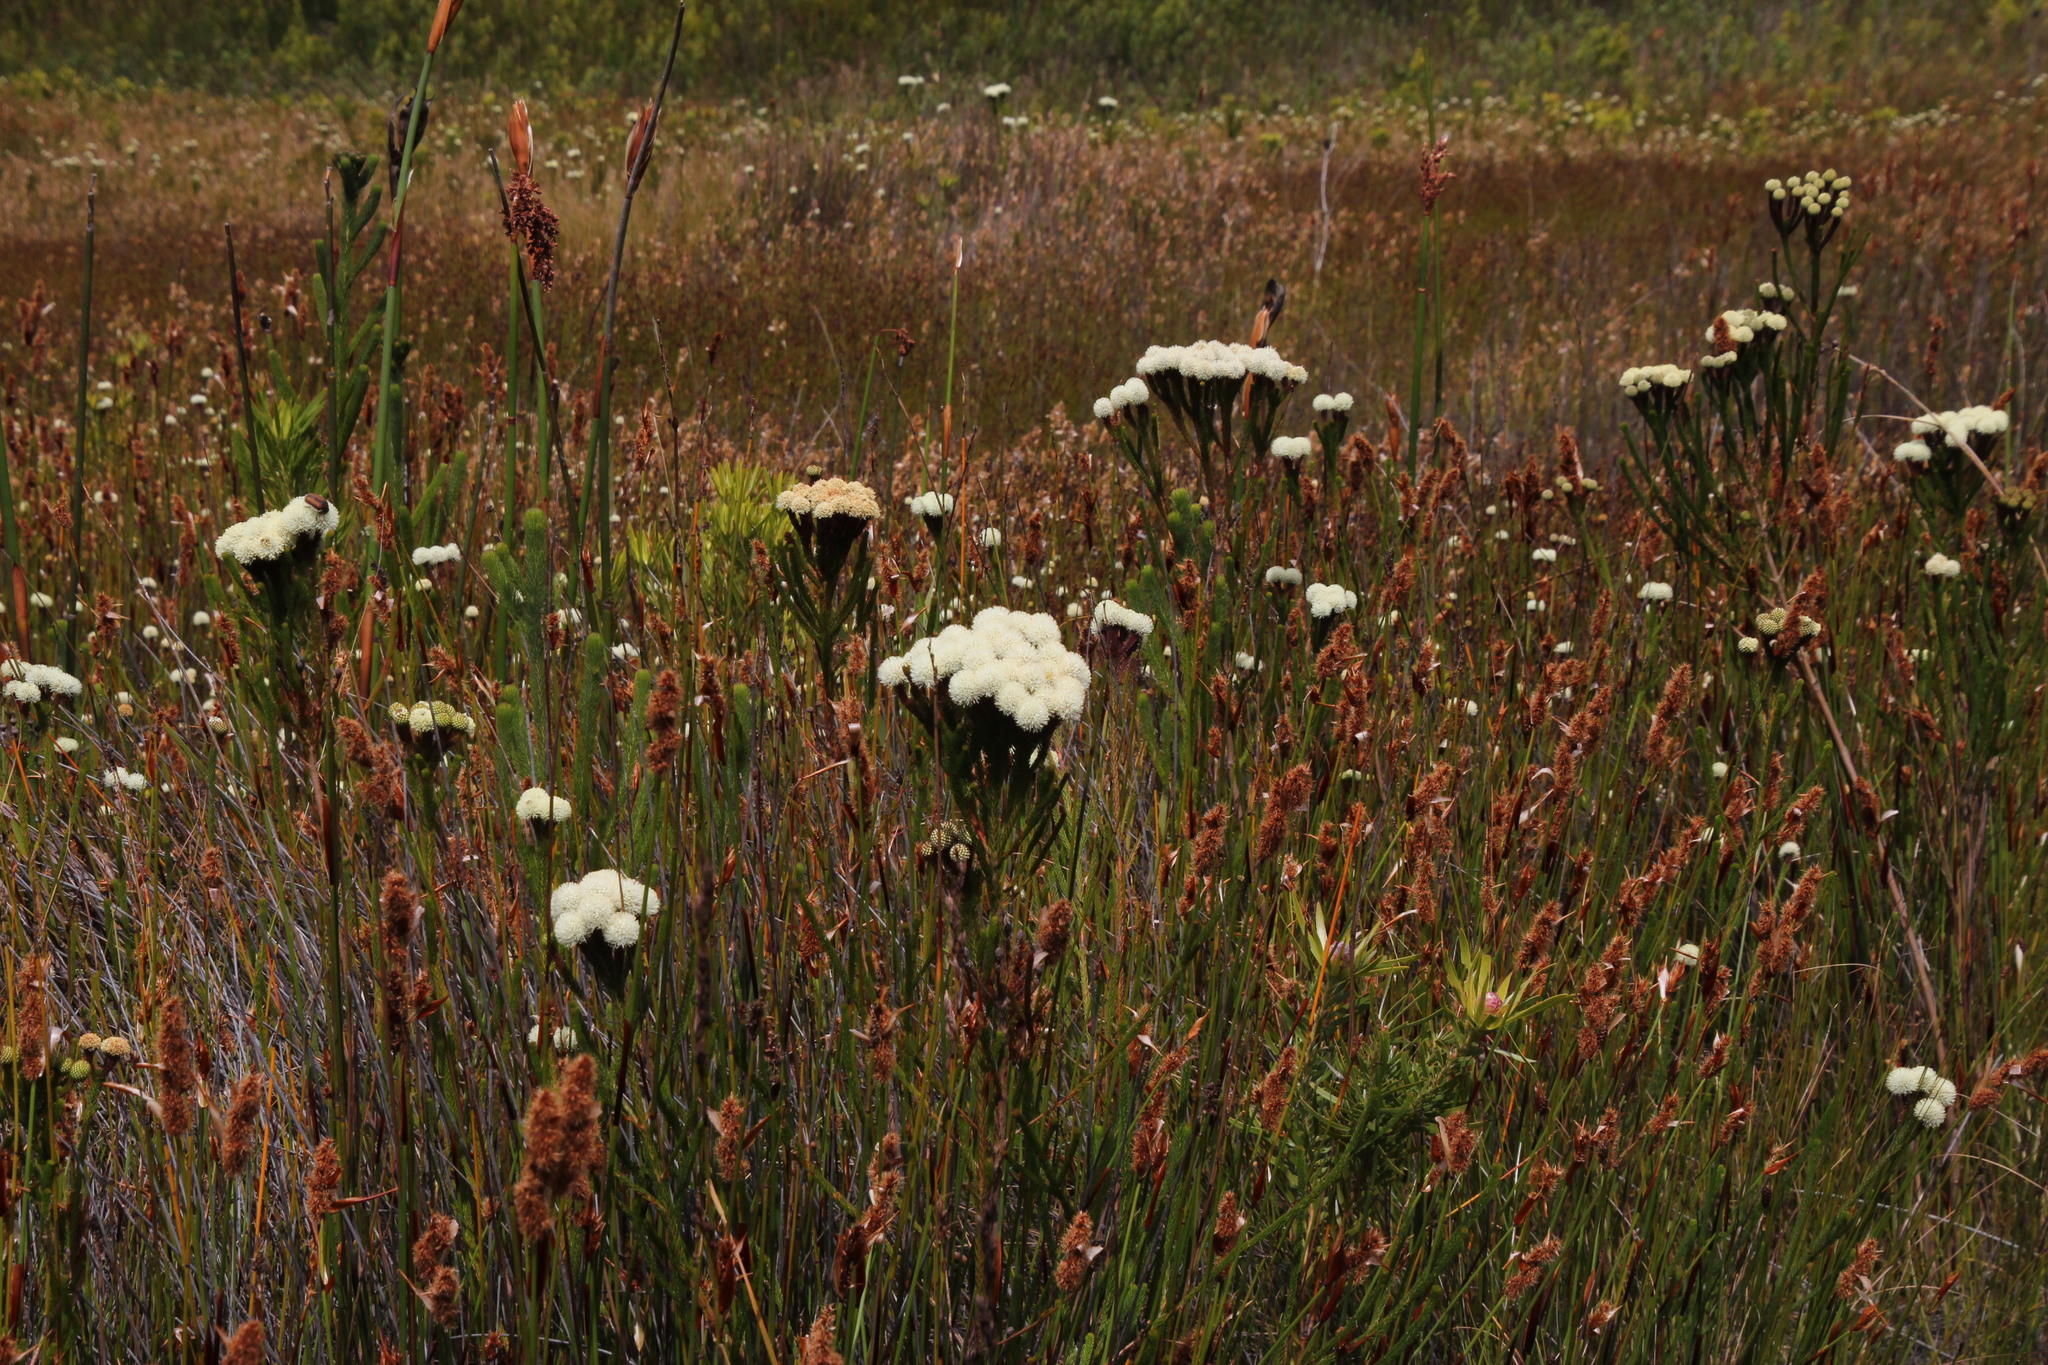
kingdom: Plantae
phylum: Tracheophyta
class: Magnoliopsida
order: Bruniales
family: Bruniaceae
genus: Berzelia
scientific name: Berzelia ecklonii
